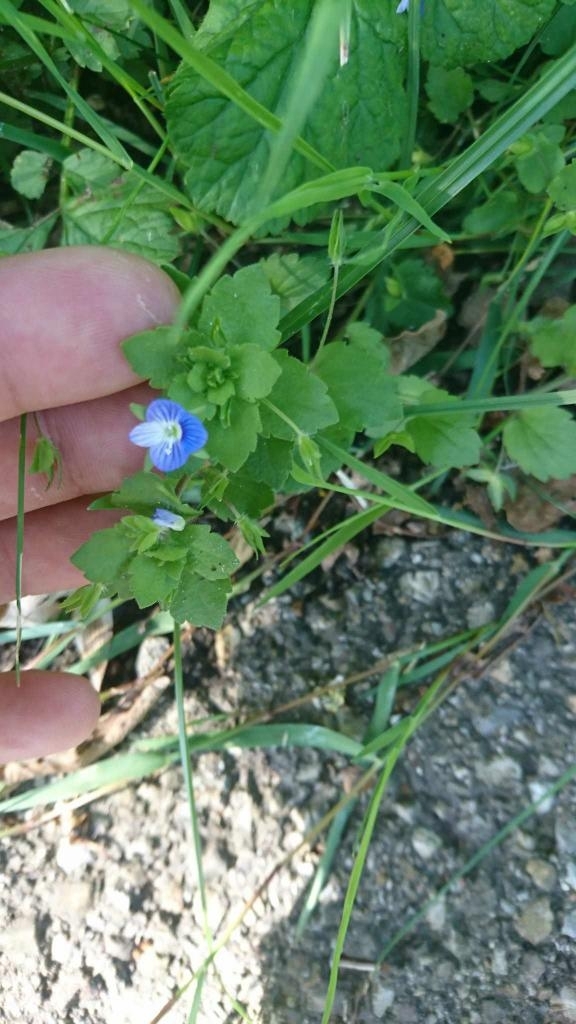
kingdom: Plantae
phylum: Tracheophyta
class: Magnoliopsida
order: Lamiales
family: Plantaginaceae
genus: Veronica
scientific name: Veronica persica
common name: Common field-speedwell
